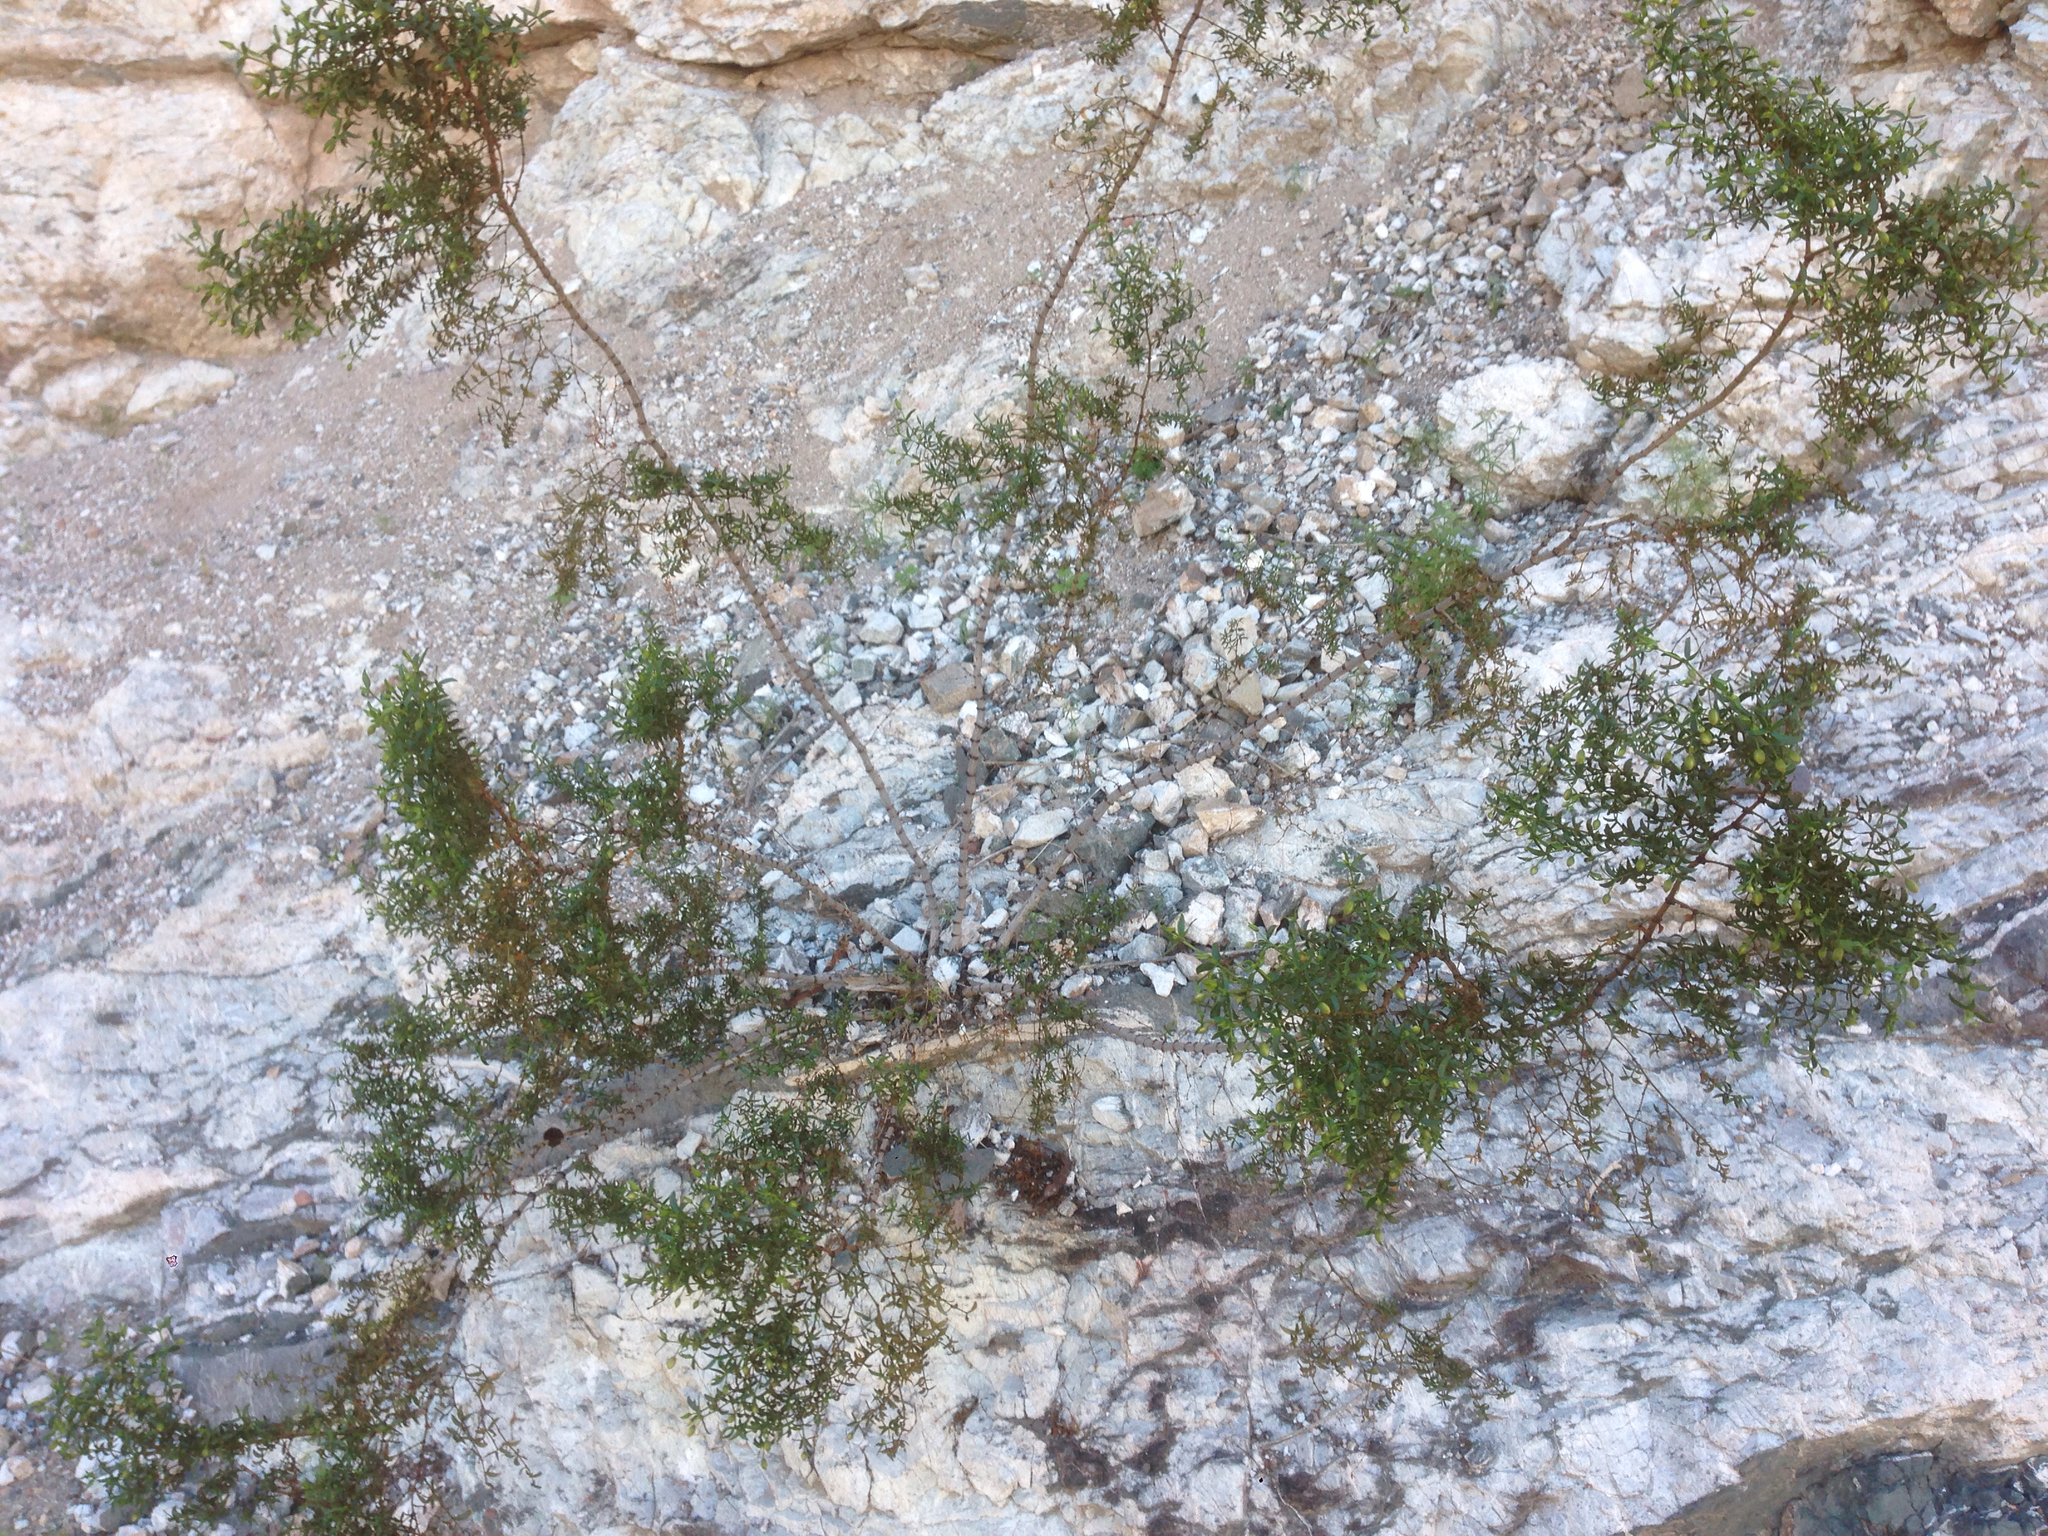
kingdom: Plantae
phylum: Tracheophyta
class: Magnoliopsida
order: Zygophyllales
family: Zygophyllaceae
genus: Larrea
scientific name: Larrea tridentata
